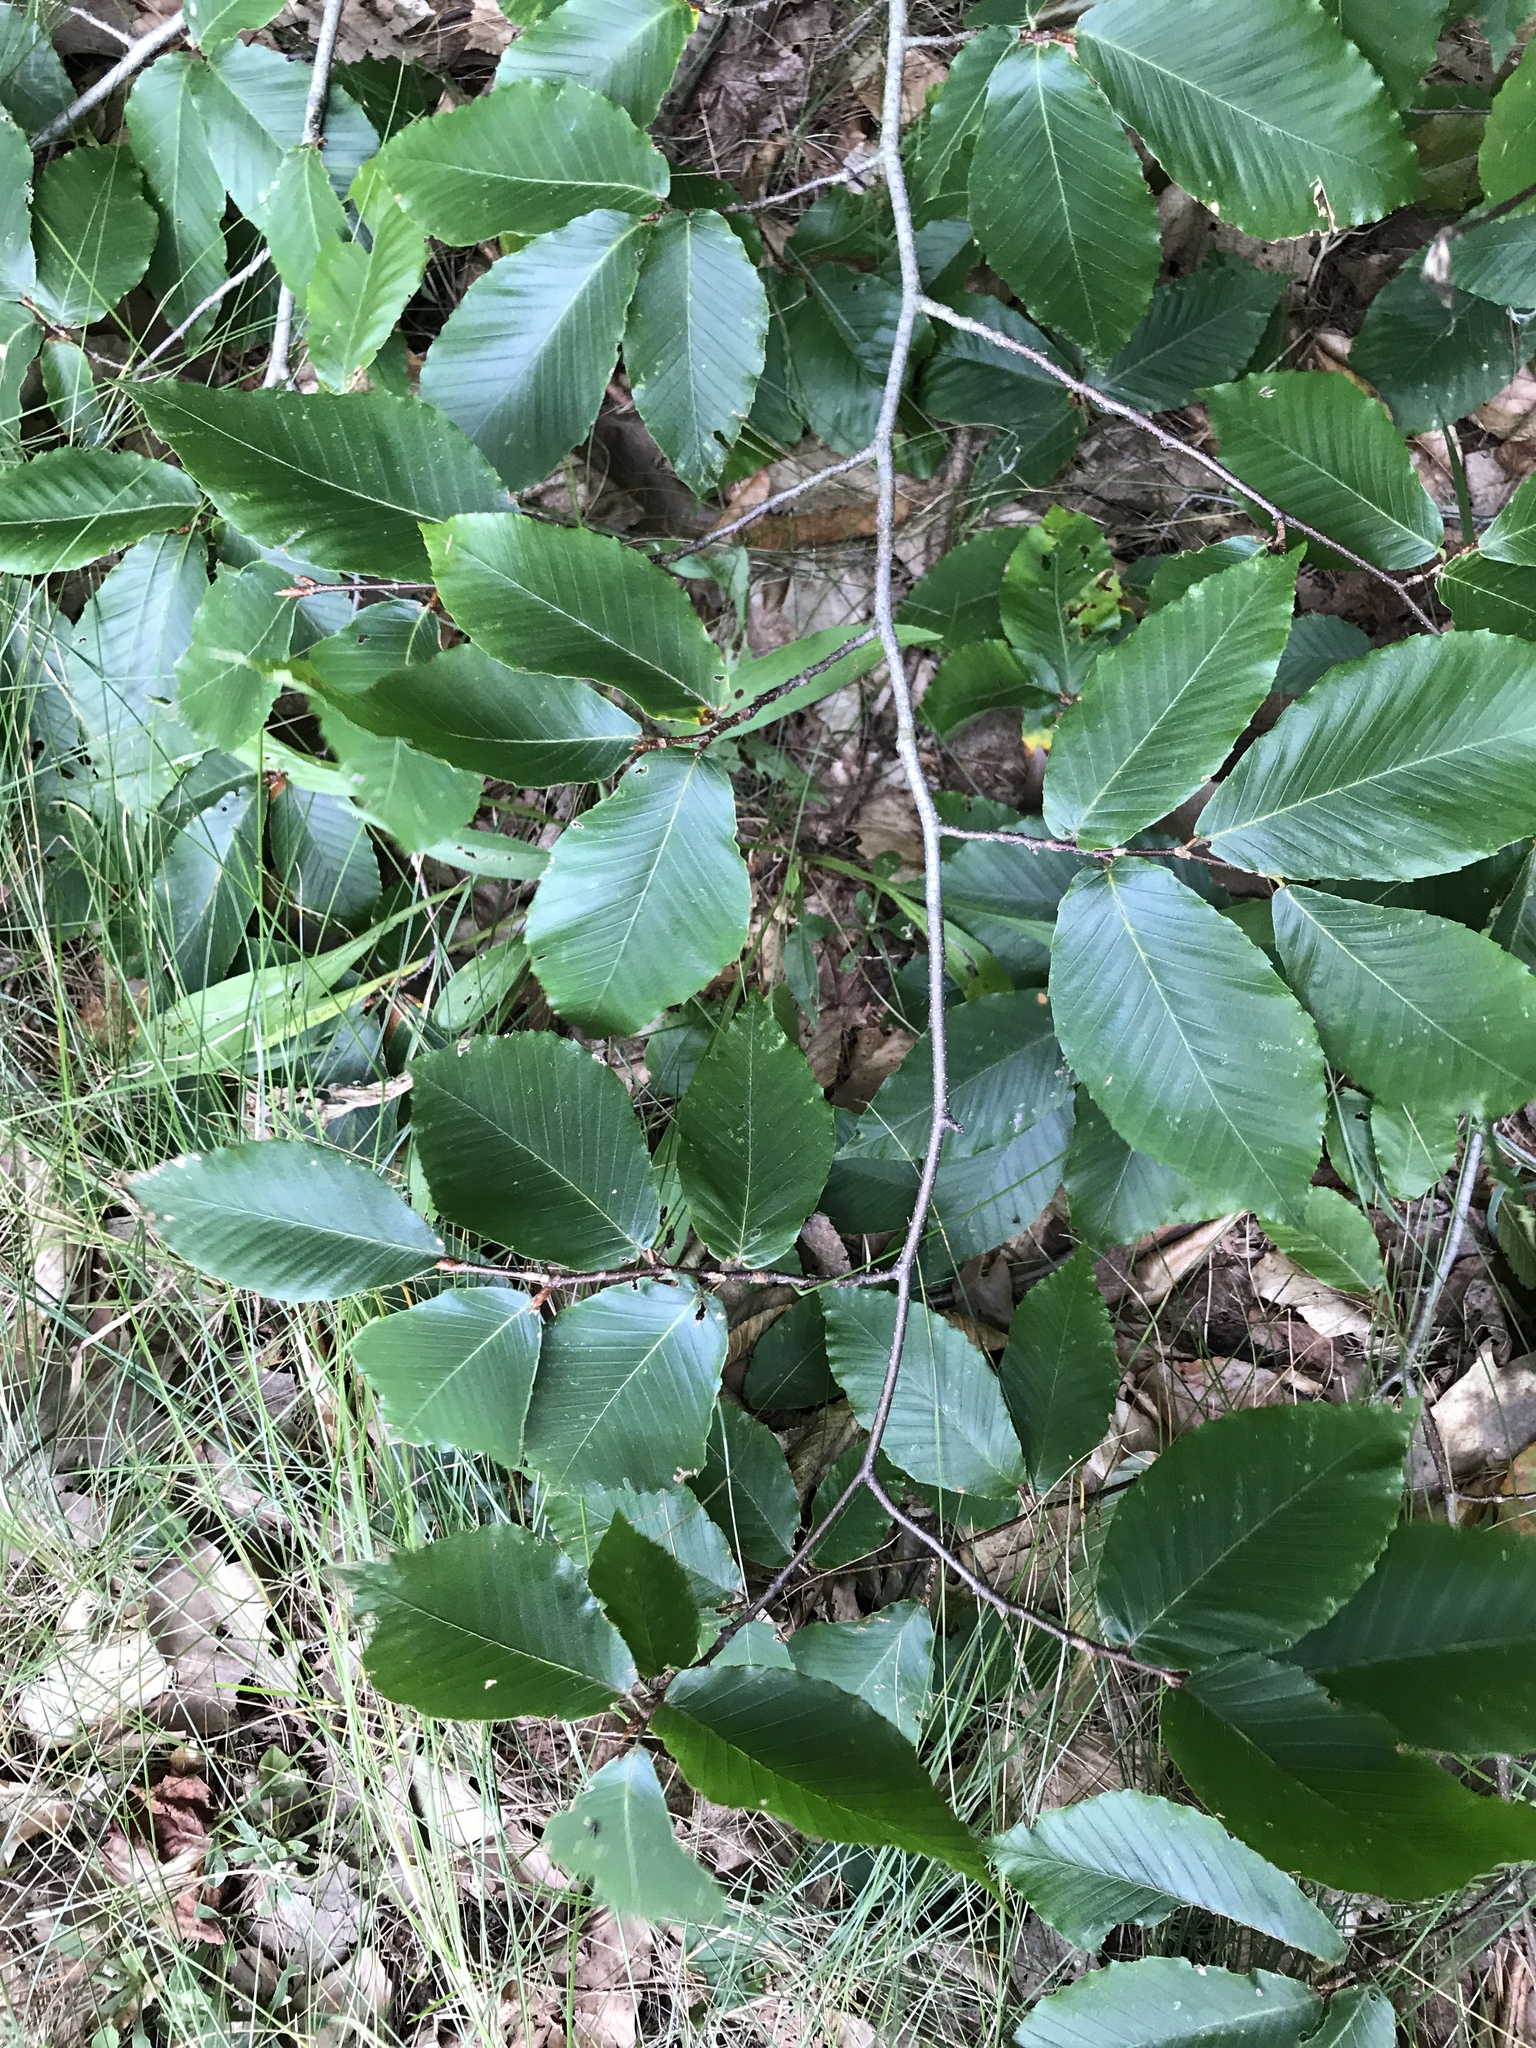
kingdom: Plantae
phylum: Tracheophyta
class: Magnoliopsida
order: Fagales
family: Fagaceae
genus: Fagus
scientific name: Fagus grandifolia
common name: American beech
